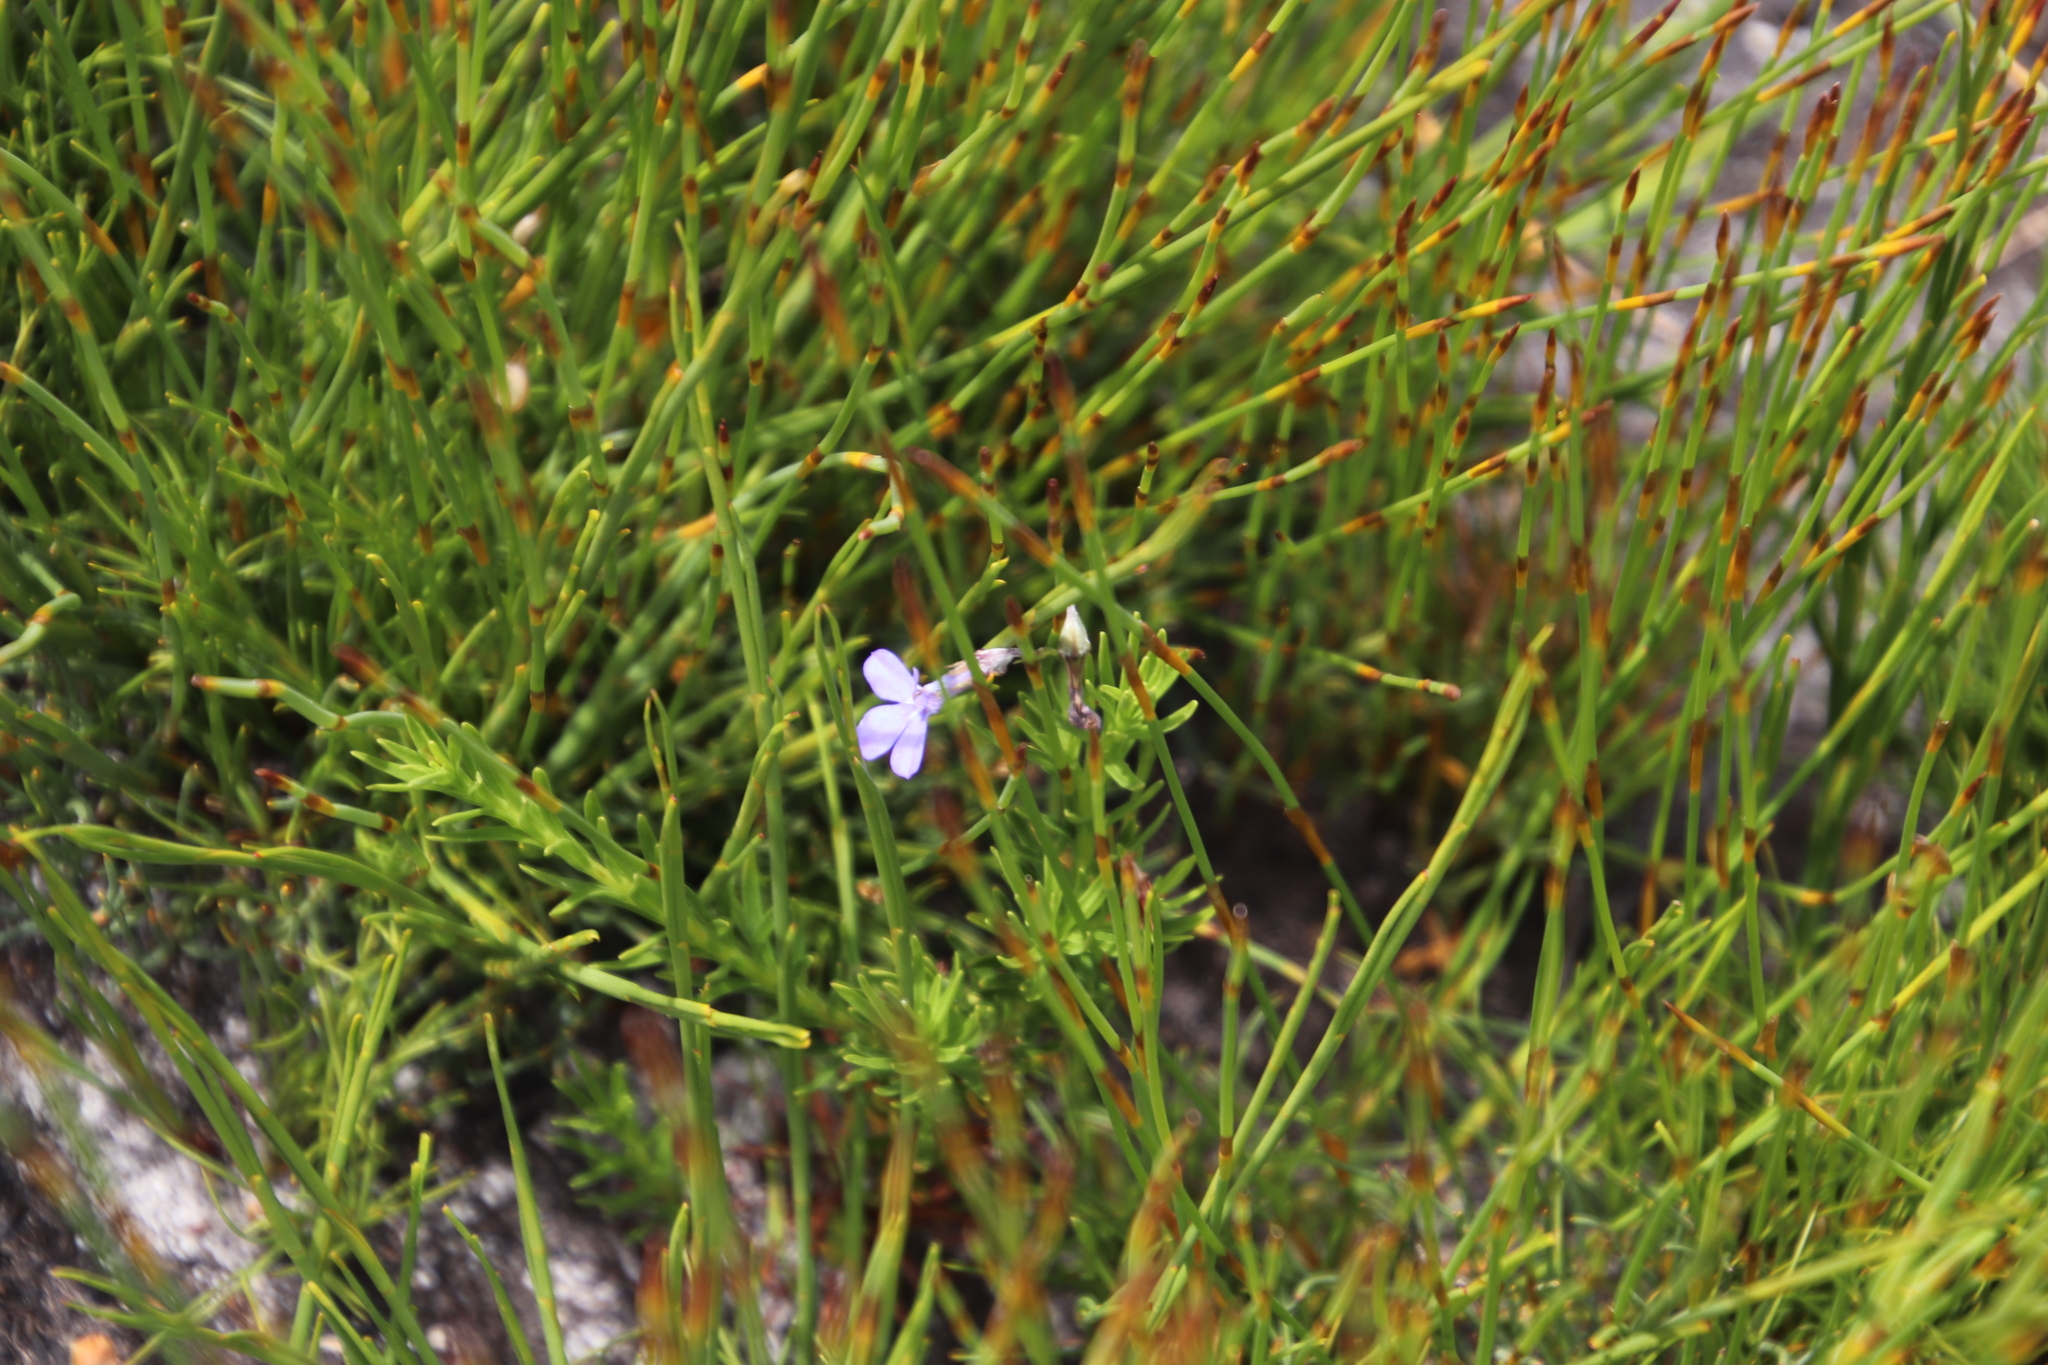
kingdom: Plantae
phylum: Tracheophyta
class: Magnoliopsida
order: Asterales
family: Campanulaceae
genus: Lobelia
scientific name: Lobelia pinifolia
